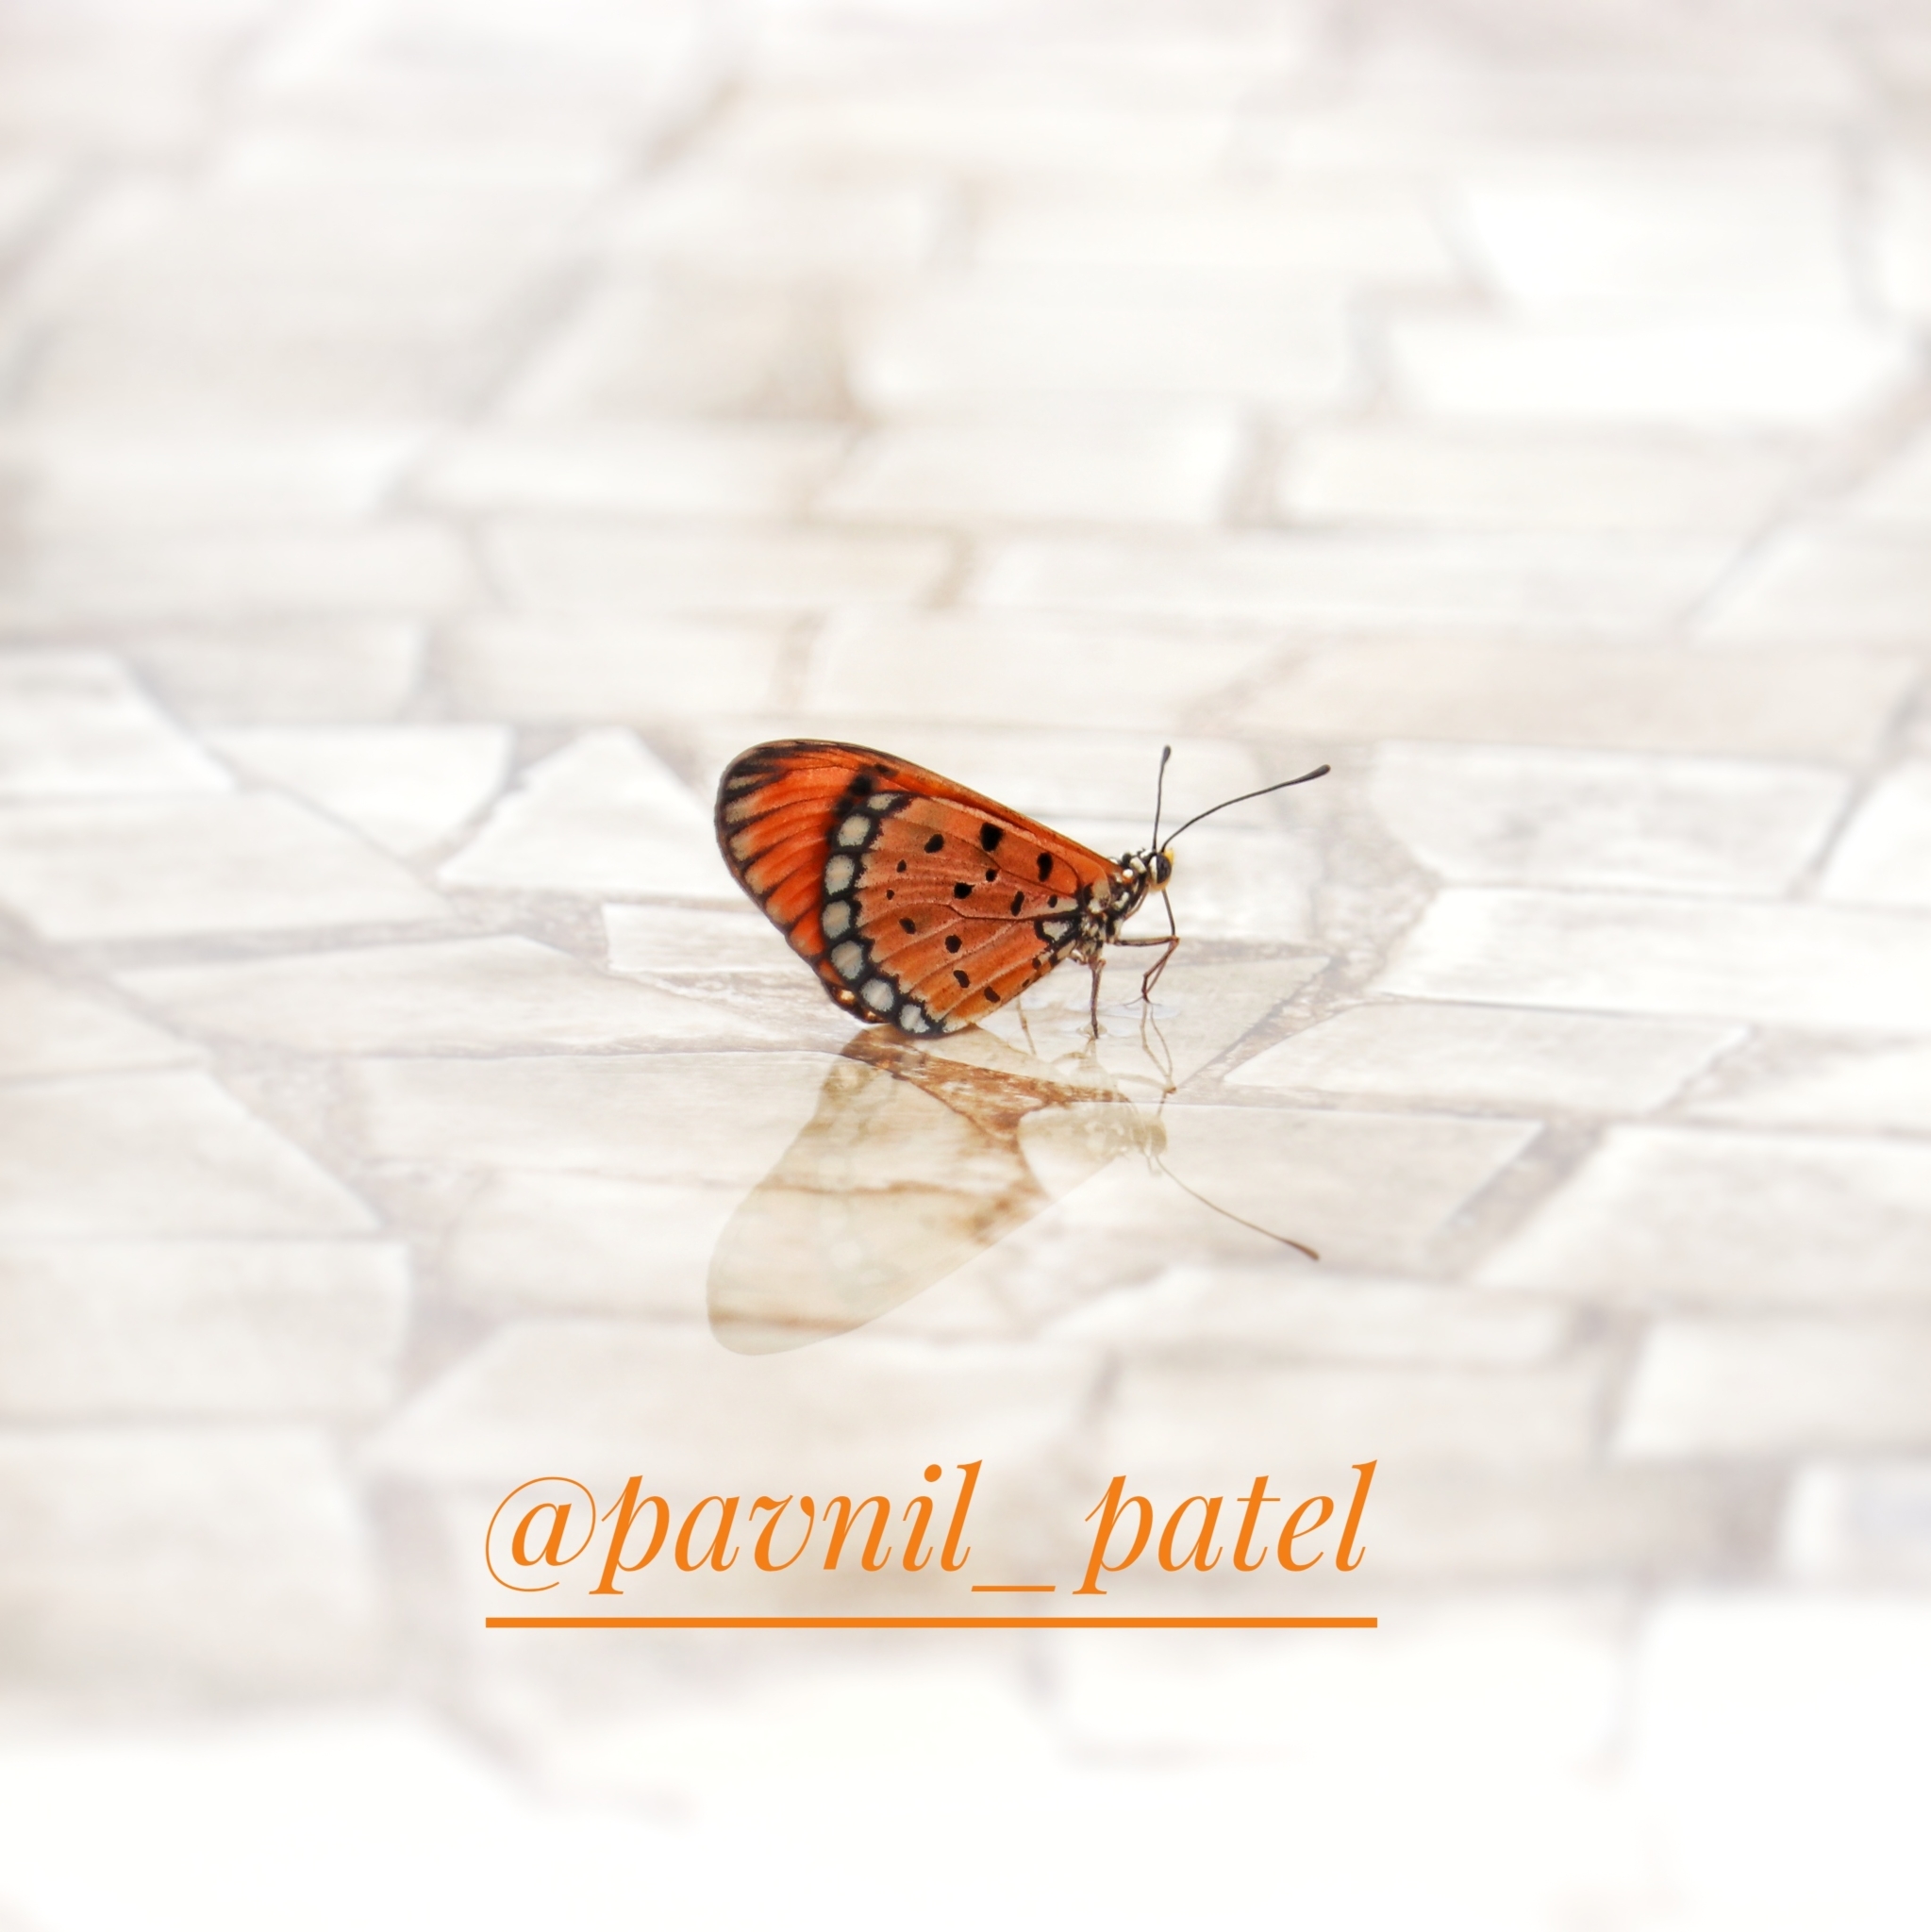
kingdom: Animalia
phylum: Arthropoda
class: Insecta
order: Lepidoptera
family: Nymphalidae
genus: Acraea
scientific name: Acraea terpsicore
